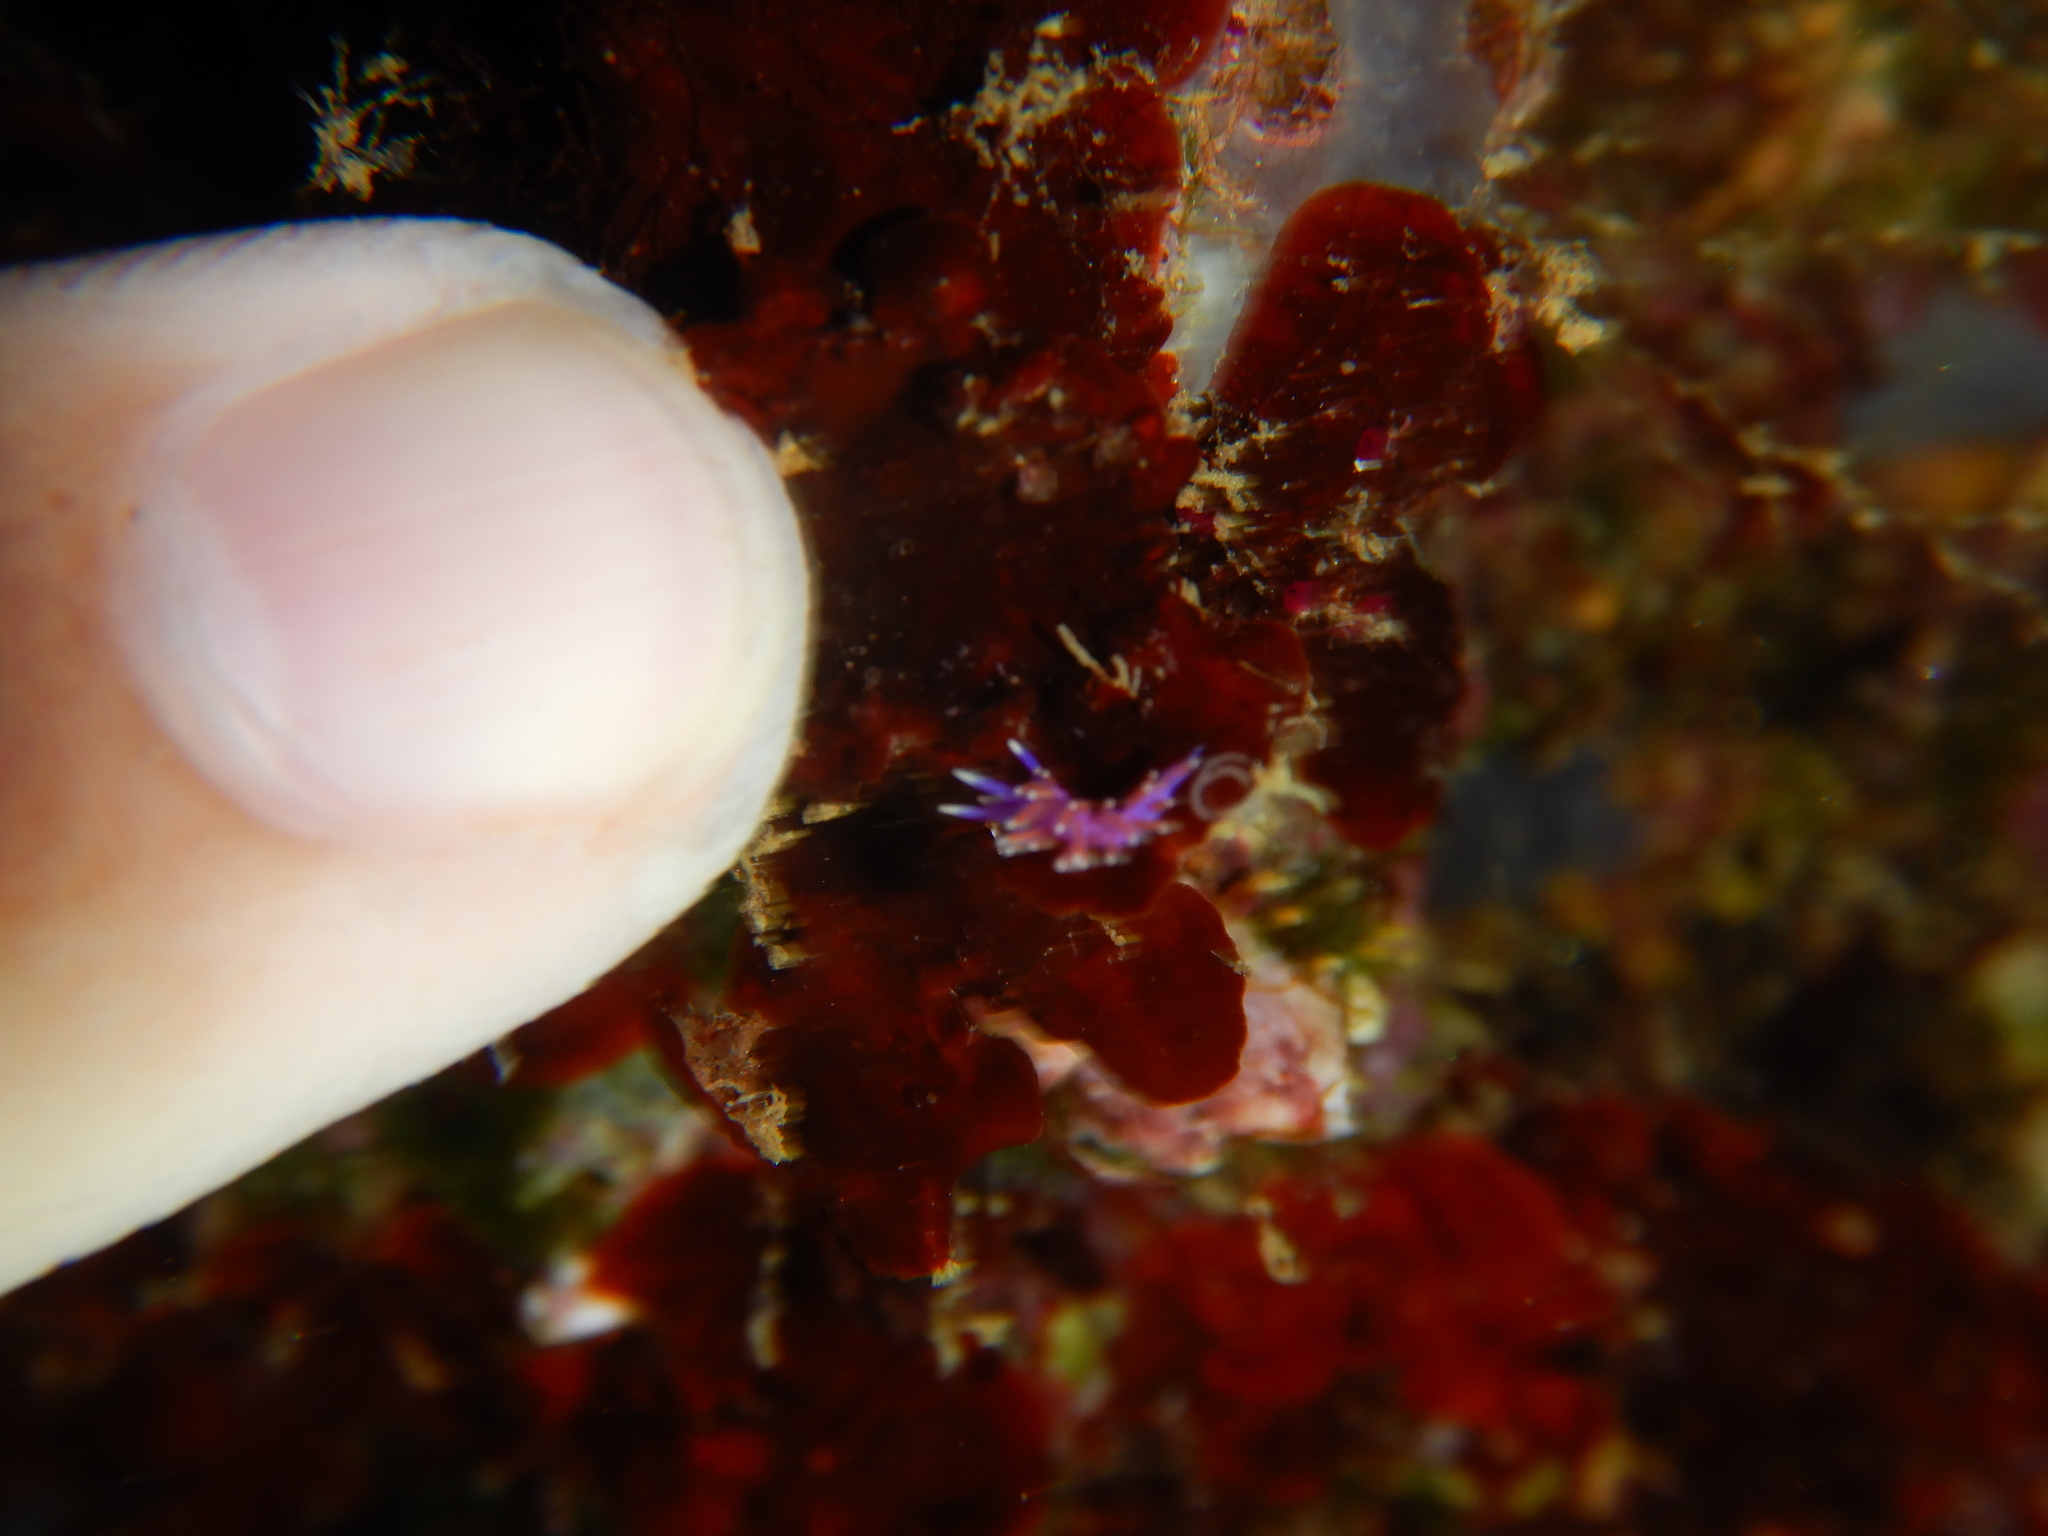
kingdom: Animalia
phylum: Mollusca
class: Gastropoda
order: Nudibranchia
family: Flabellinidae
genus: Edmundsella
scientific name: Edmundsella pedata
